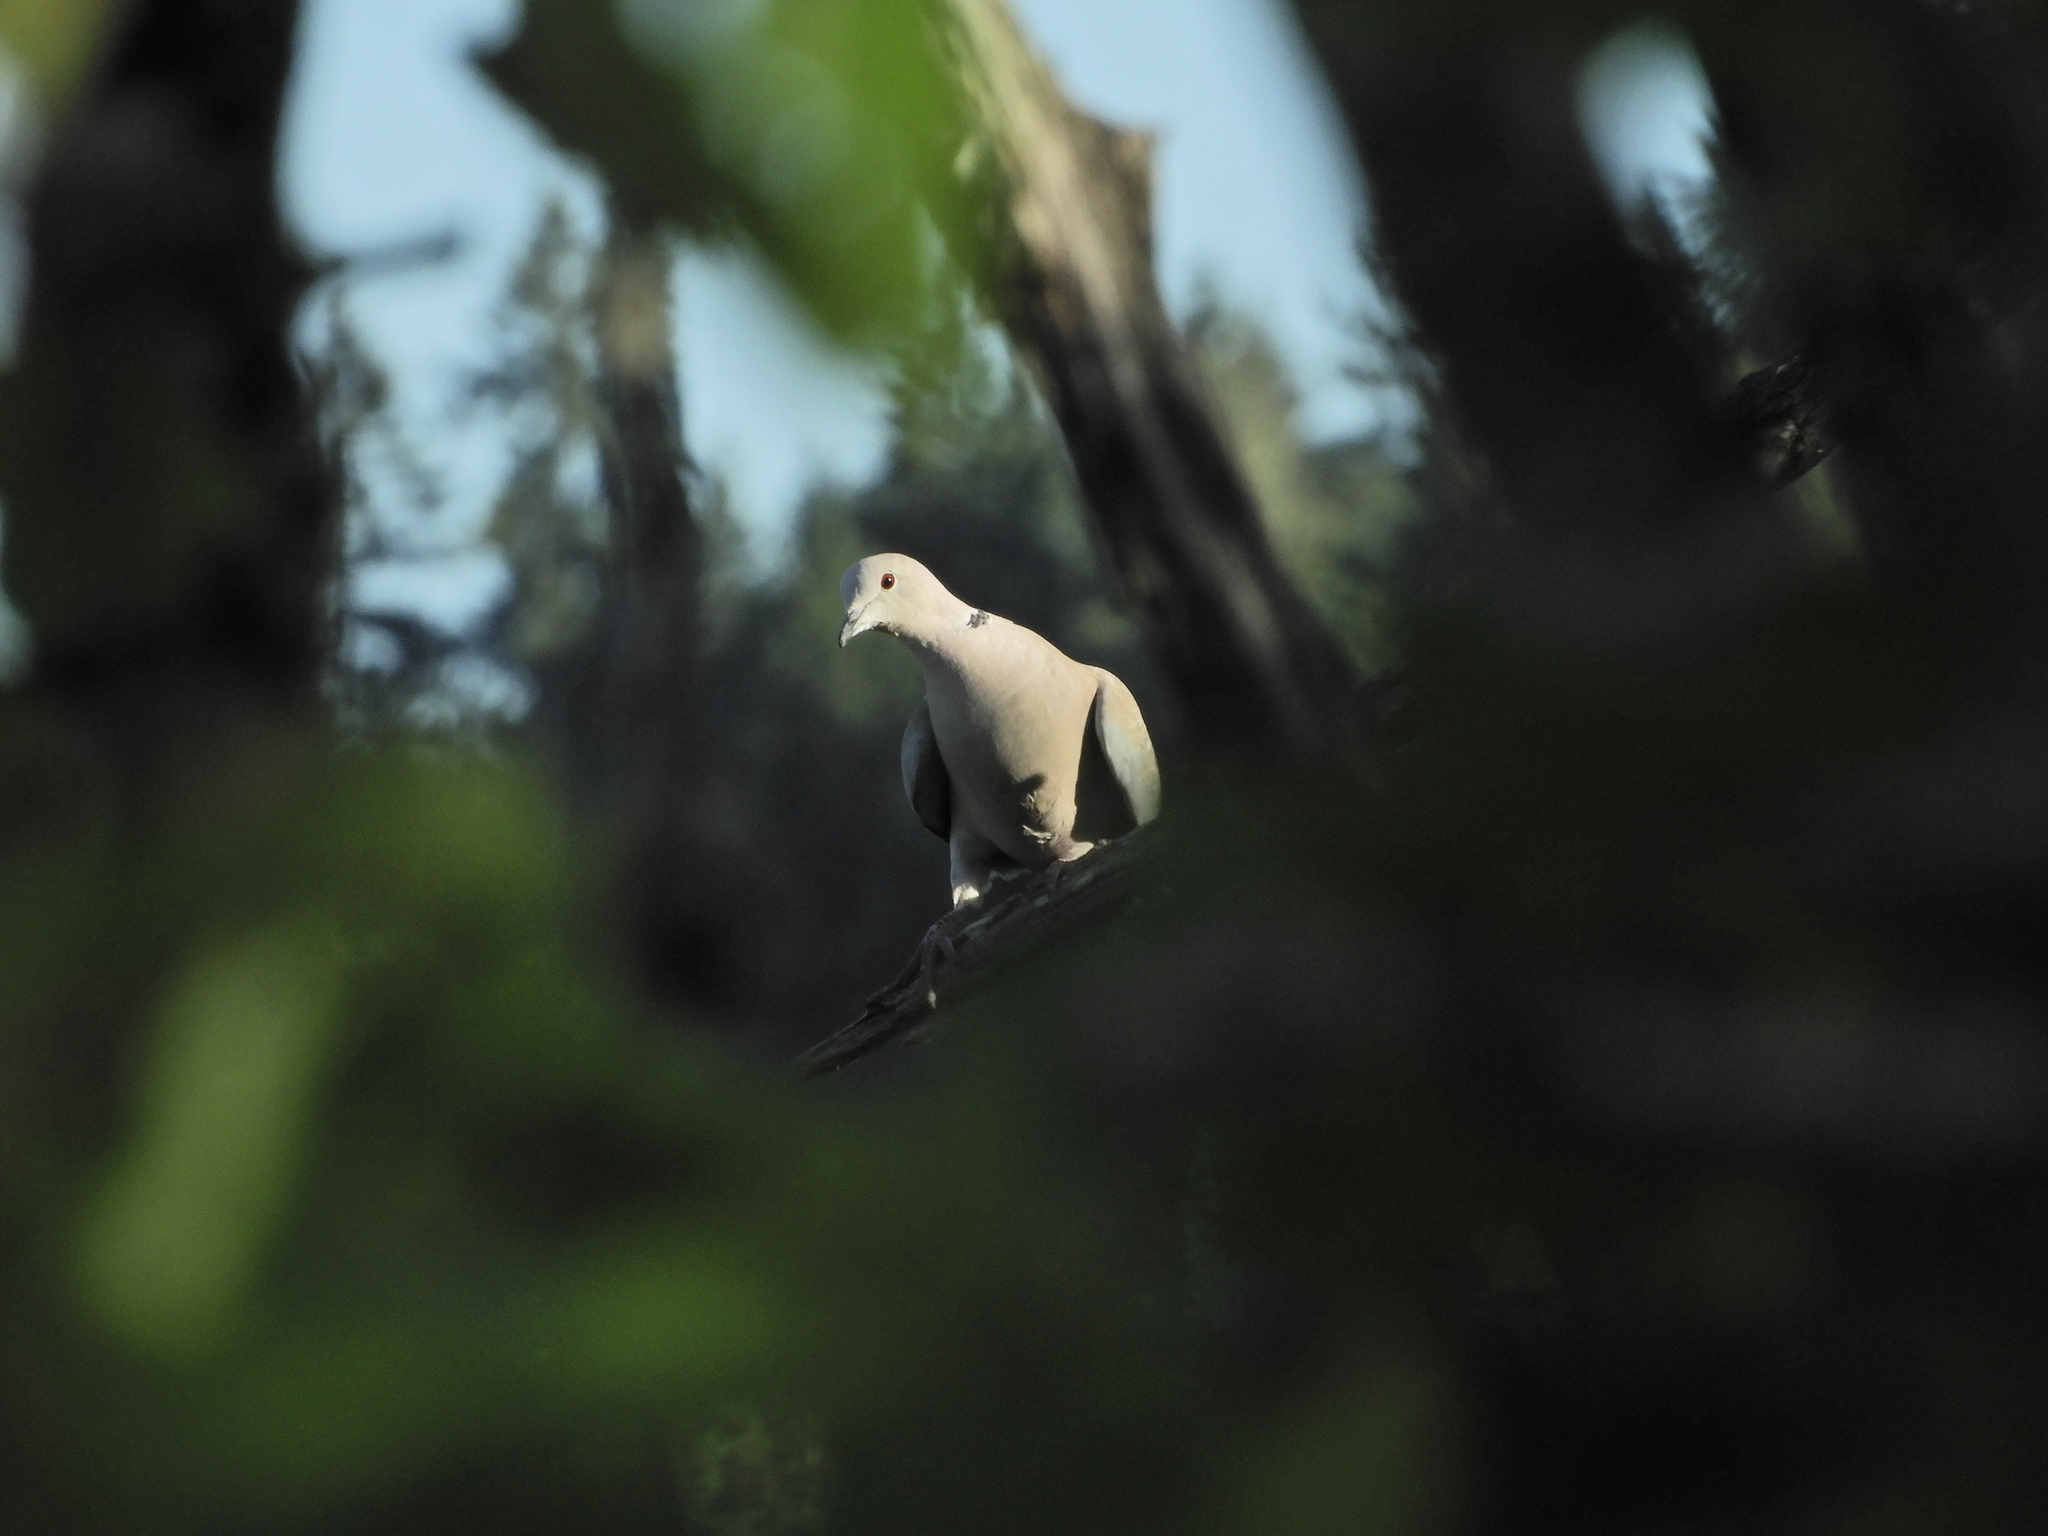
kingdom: Animalia
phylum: Chordata
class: Aves
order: Columbiformes
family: Columbidae
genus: Streptopelia
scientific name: Streptopelia decaocto
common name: Eurasian collared dove
